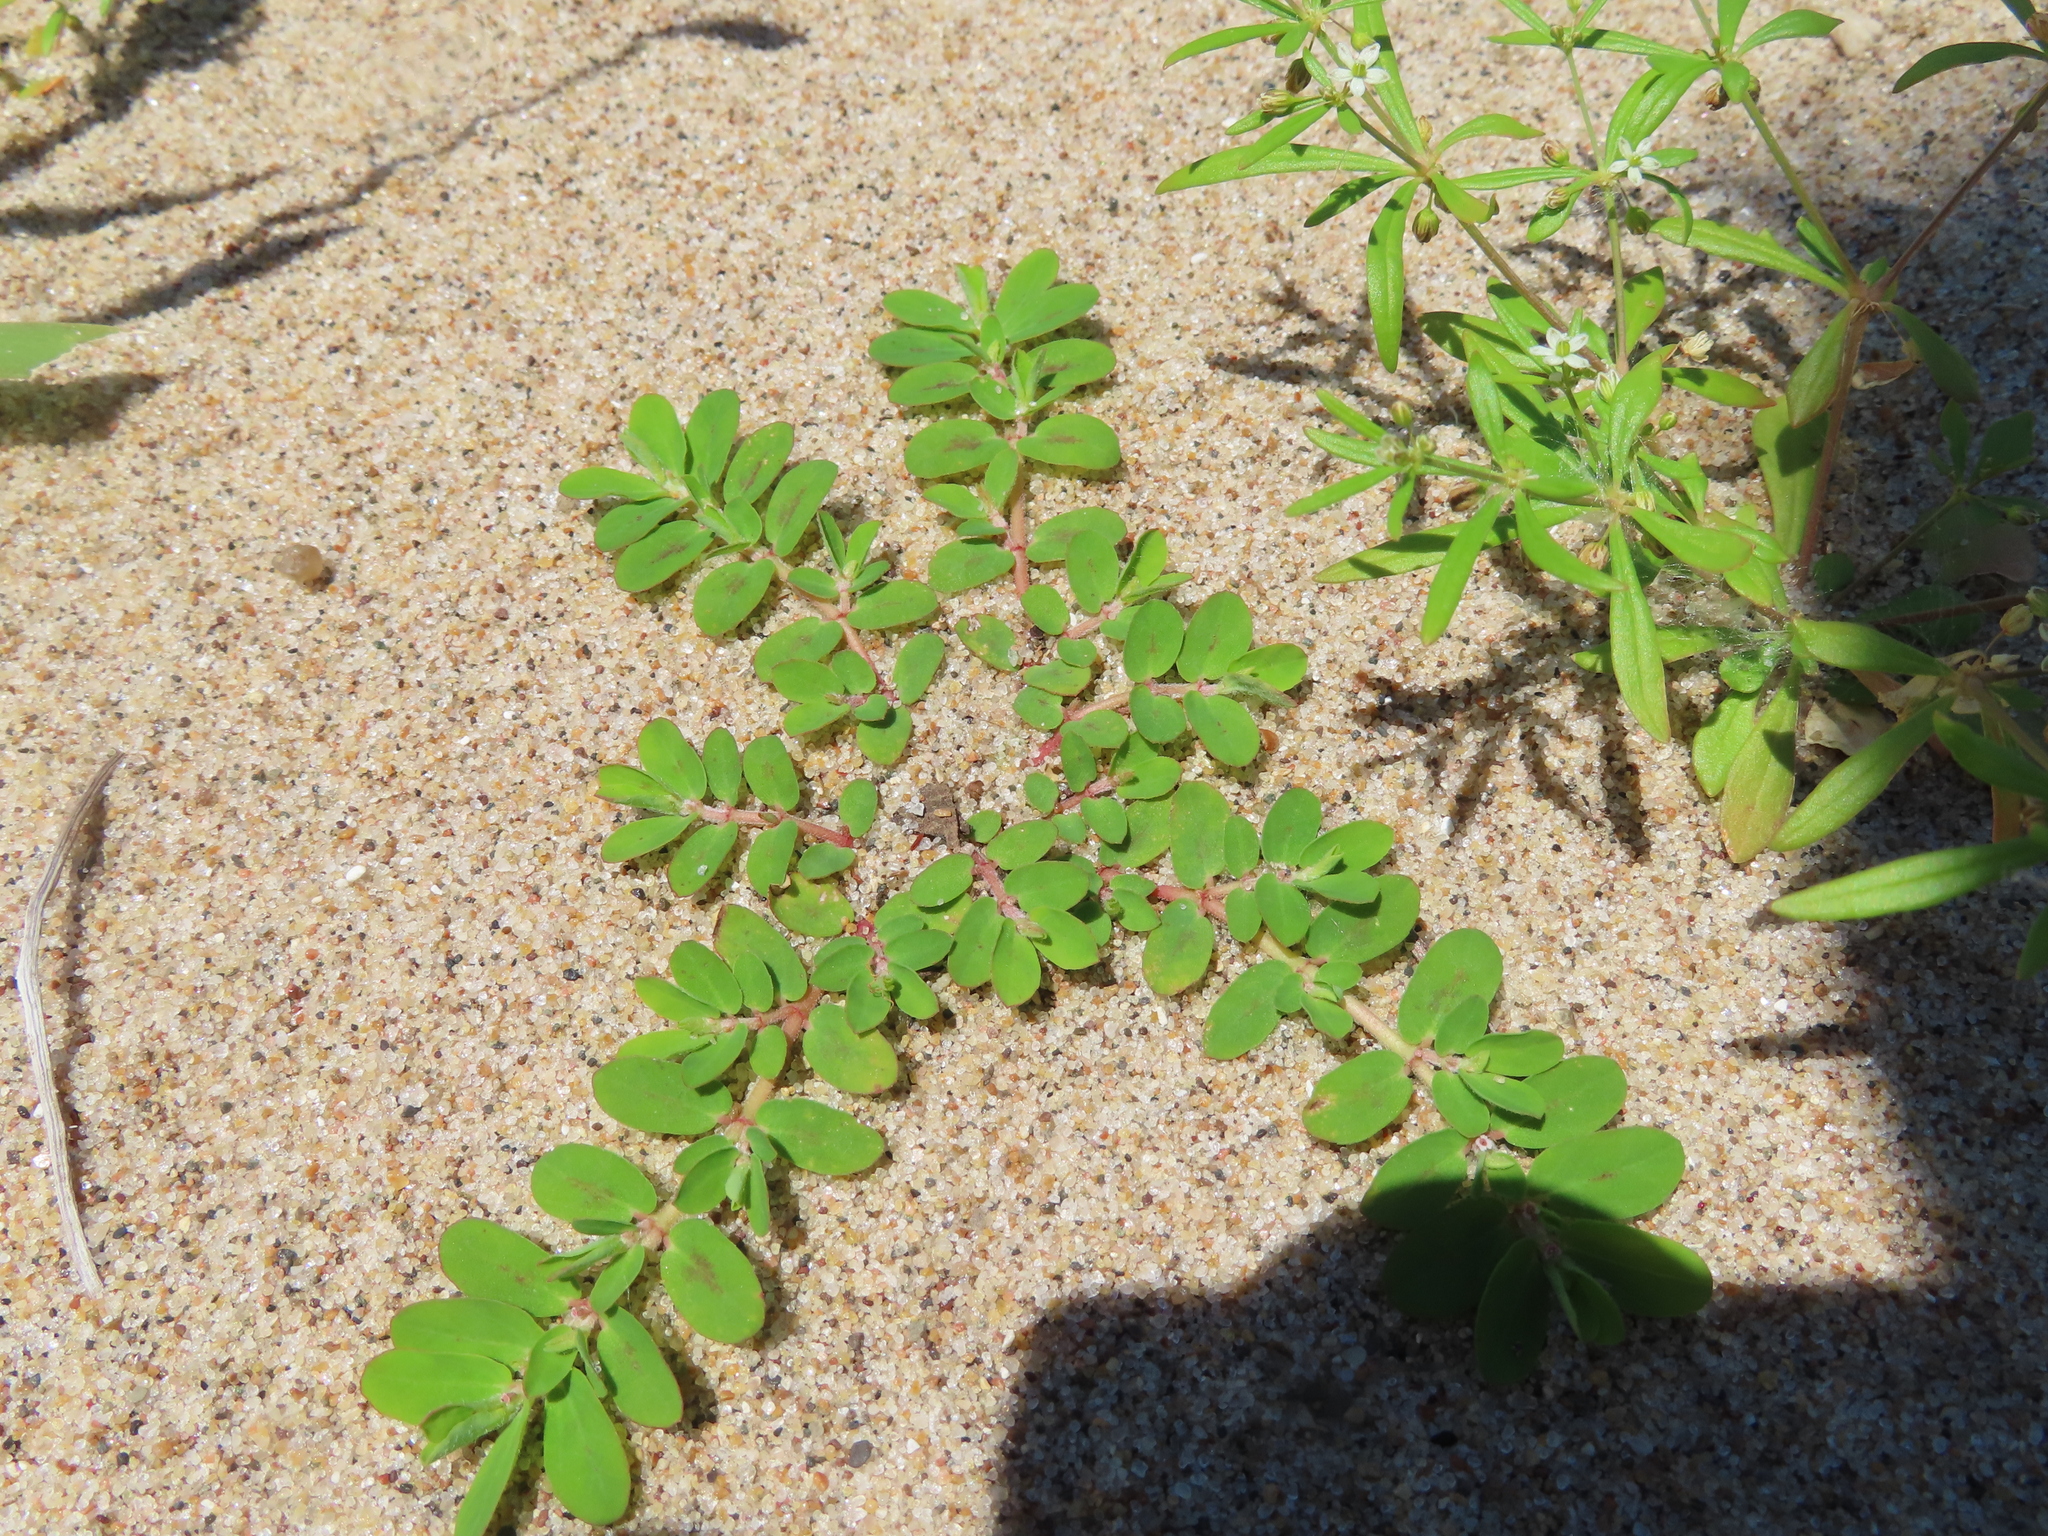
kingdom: Plantae
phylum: Tracheophyta
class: Magnoliopsida
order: Malpighiales
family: Euphorbiaceae
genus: Euphorbia
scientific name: Euphorbia humistrata
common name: Hairy spreading spurge
